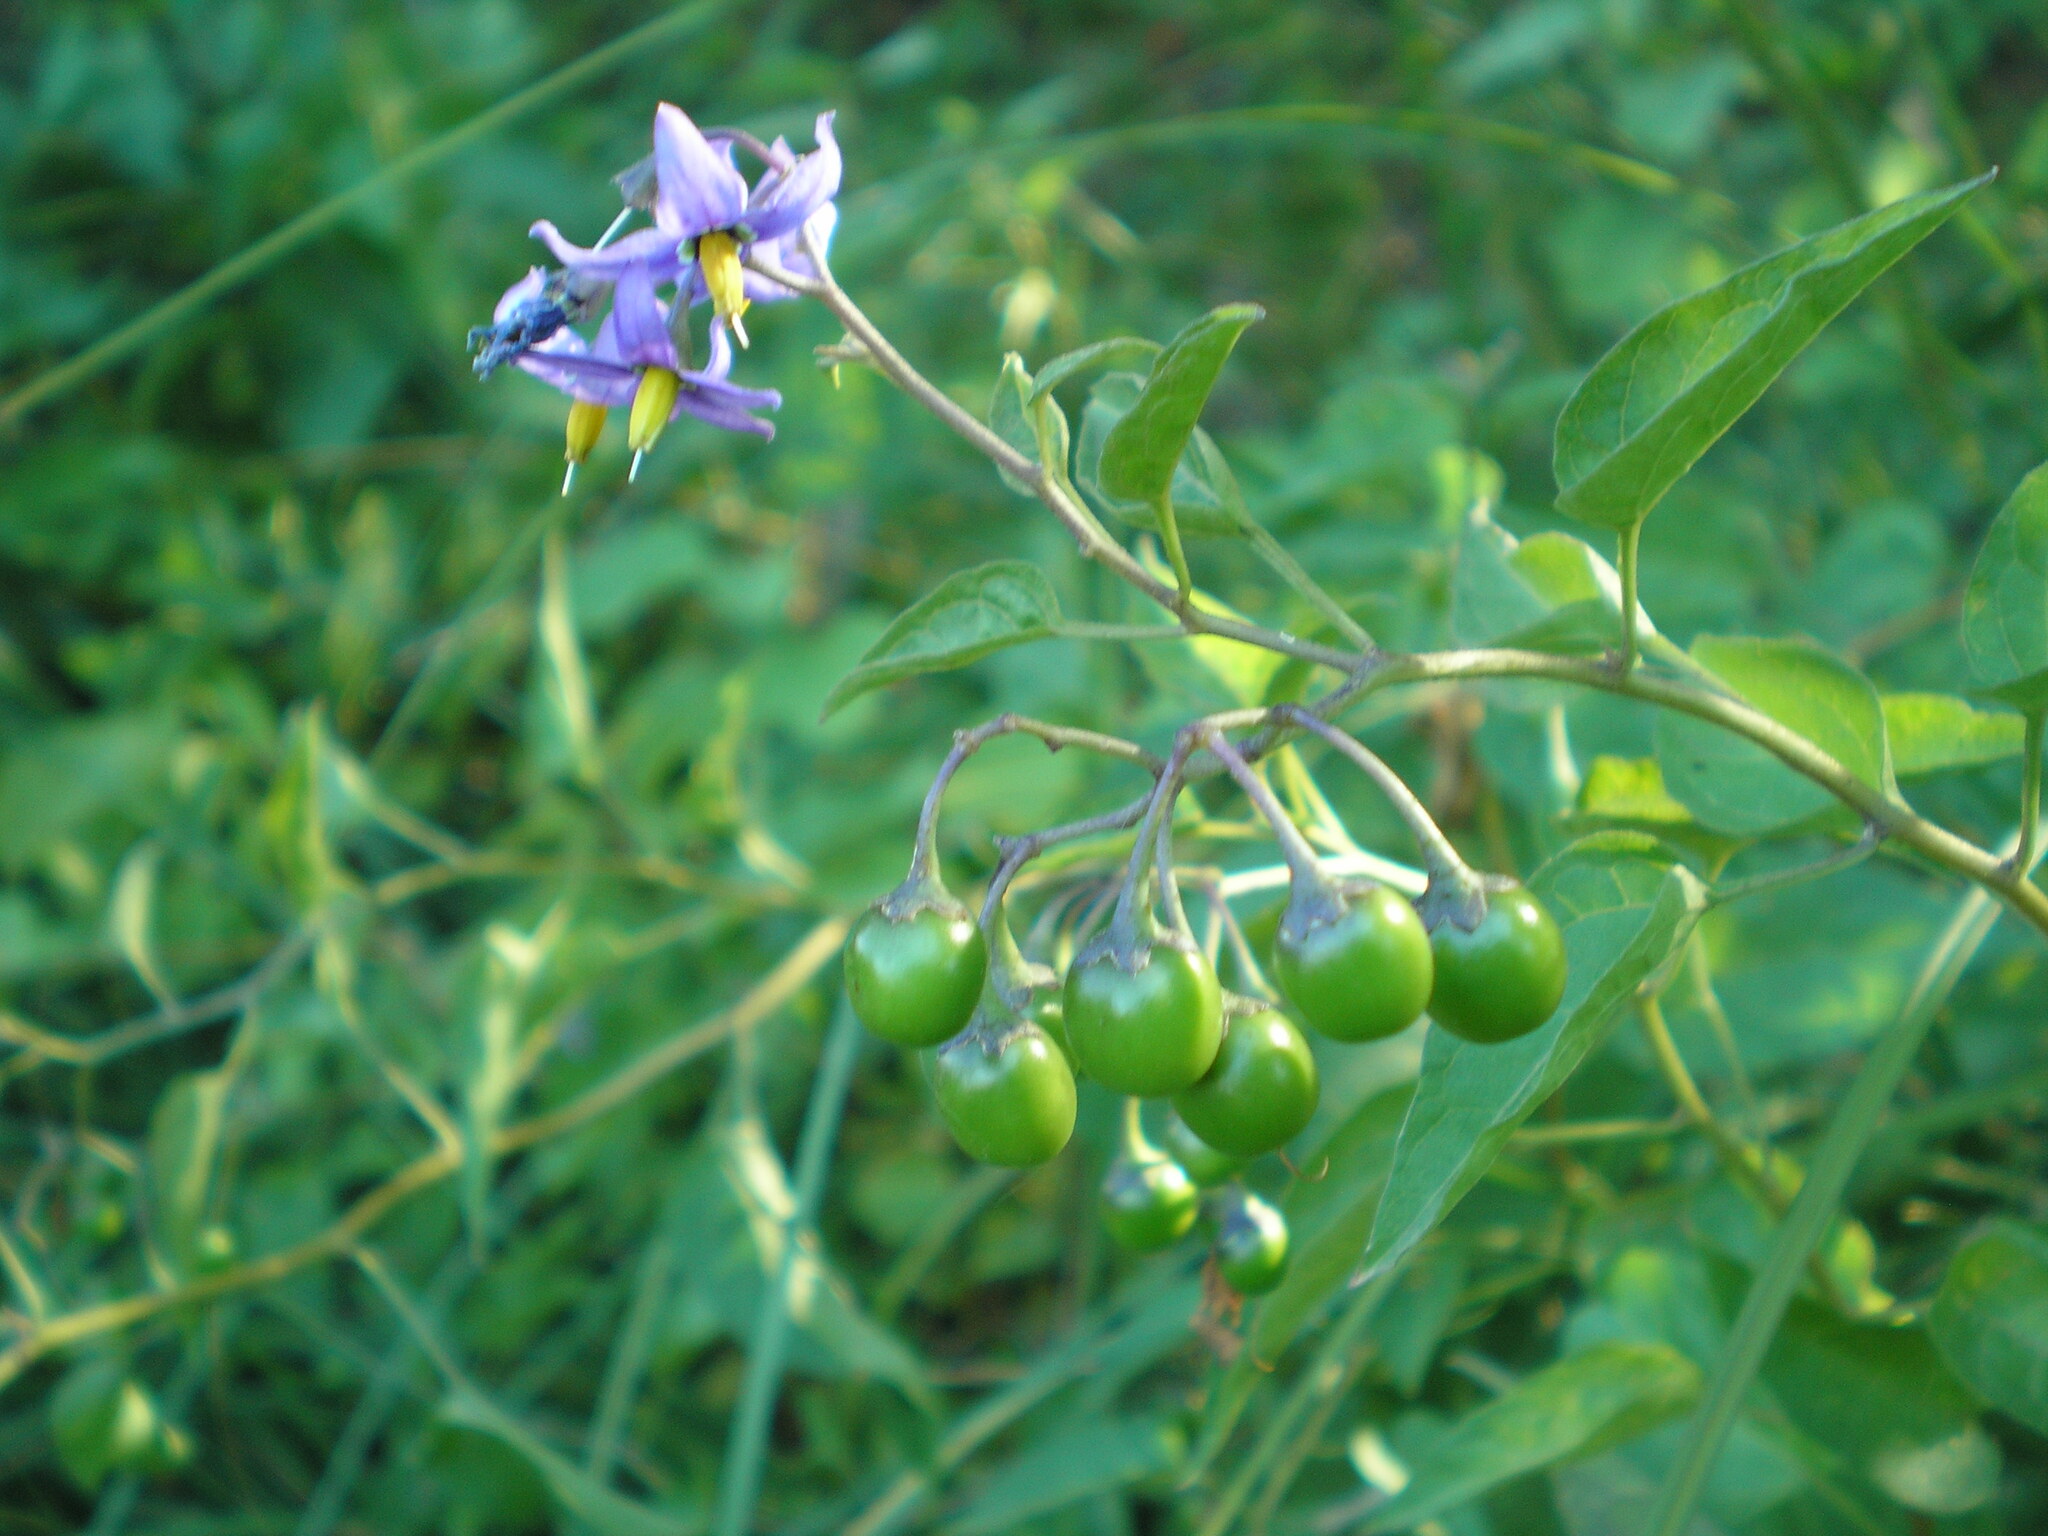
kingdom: Plantae
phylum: Tracheophyta
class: Magnoliopsida
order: Solanales
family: Solanaceae
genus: Solanum
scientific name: Solanum dulcamara
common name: Climbing nightshade
